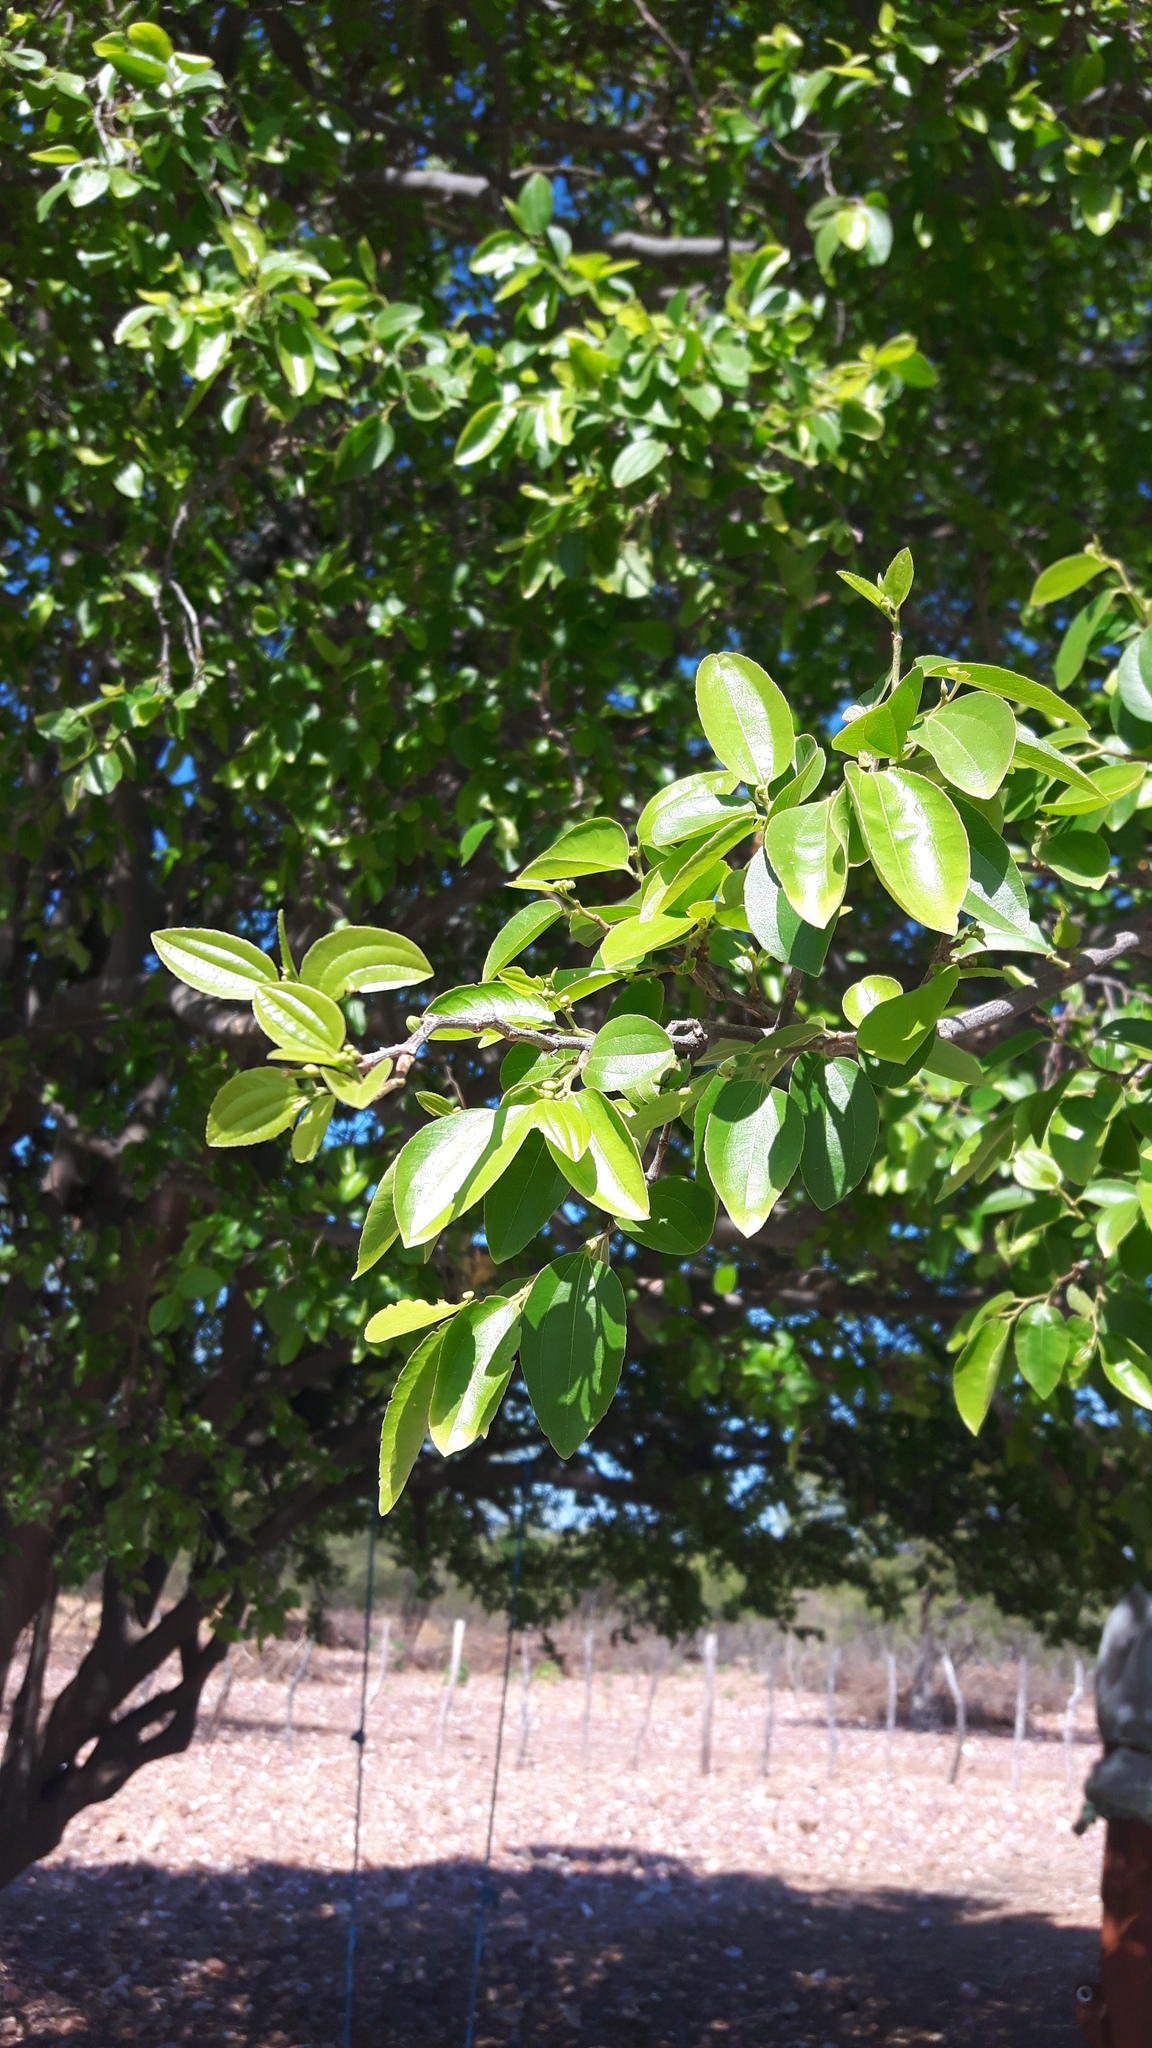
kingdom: Plantae
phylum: Tracheophyta
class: Magnoliopsida
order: Rosales
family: Rhamnaceae
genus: Sarcomphalus
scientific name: Sarcomphalus joazeiro
